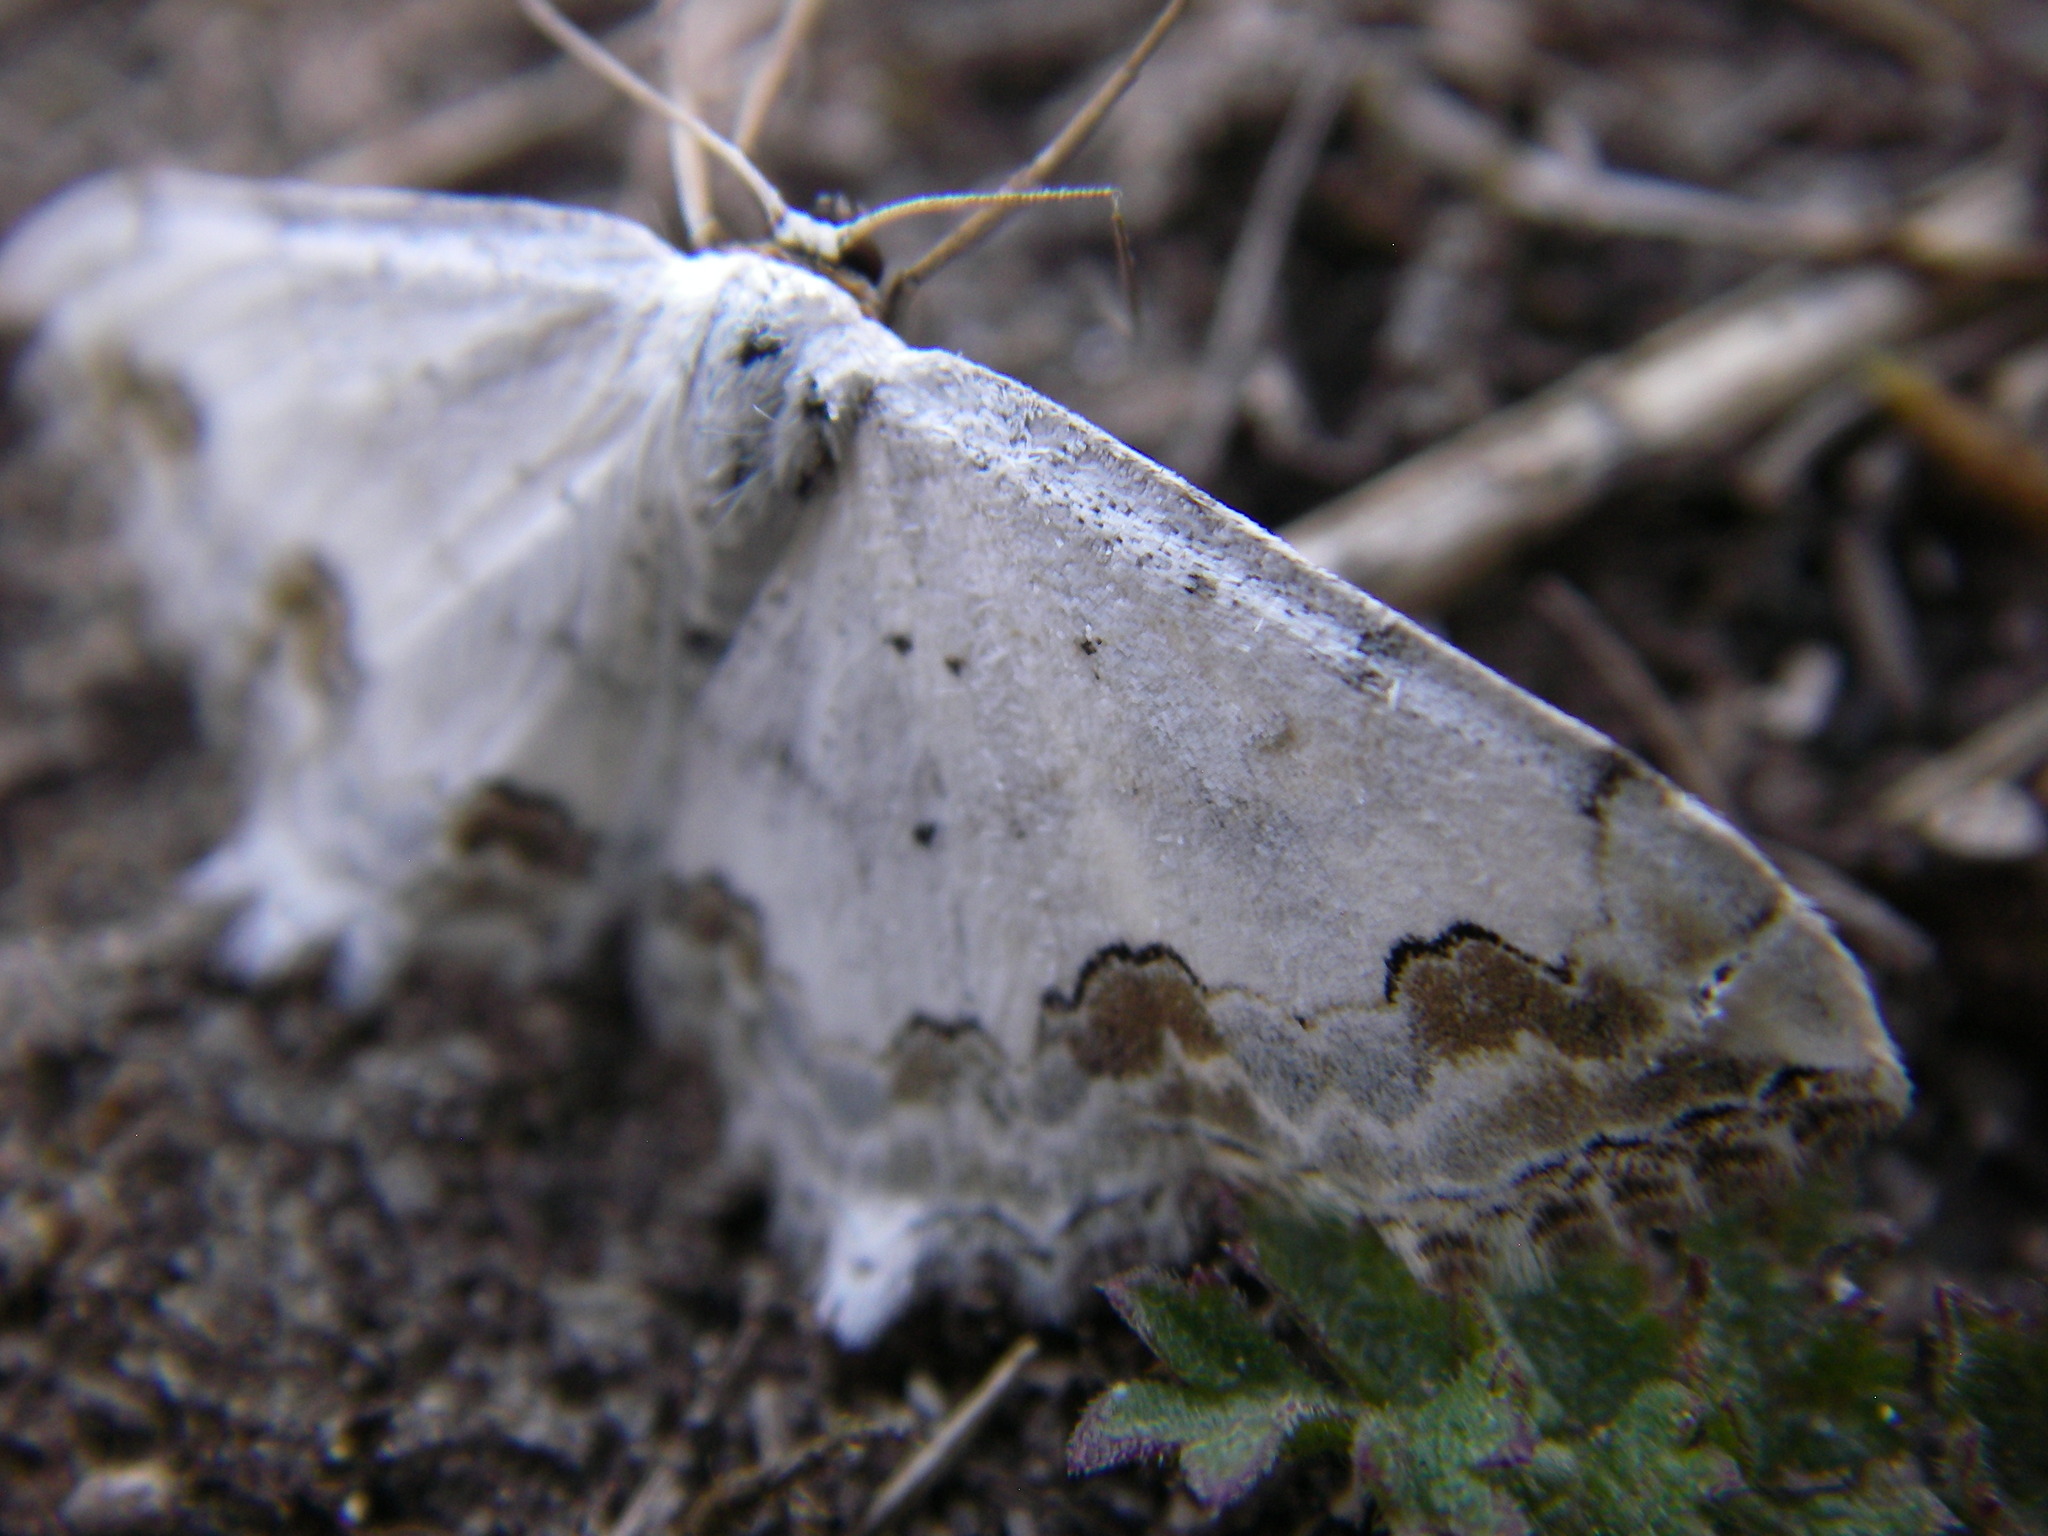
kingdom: Animalia
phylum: Arthropoda
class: Insecta
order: Lepidoptera
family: Geometridae
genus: Scopula
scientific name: Scopula ornata
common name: Lace border
